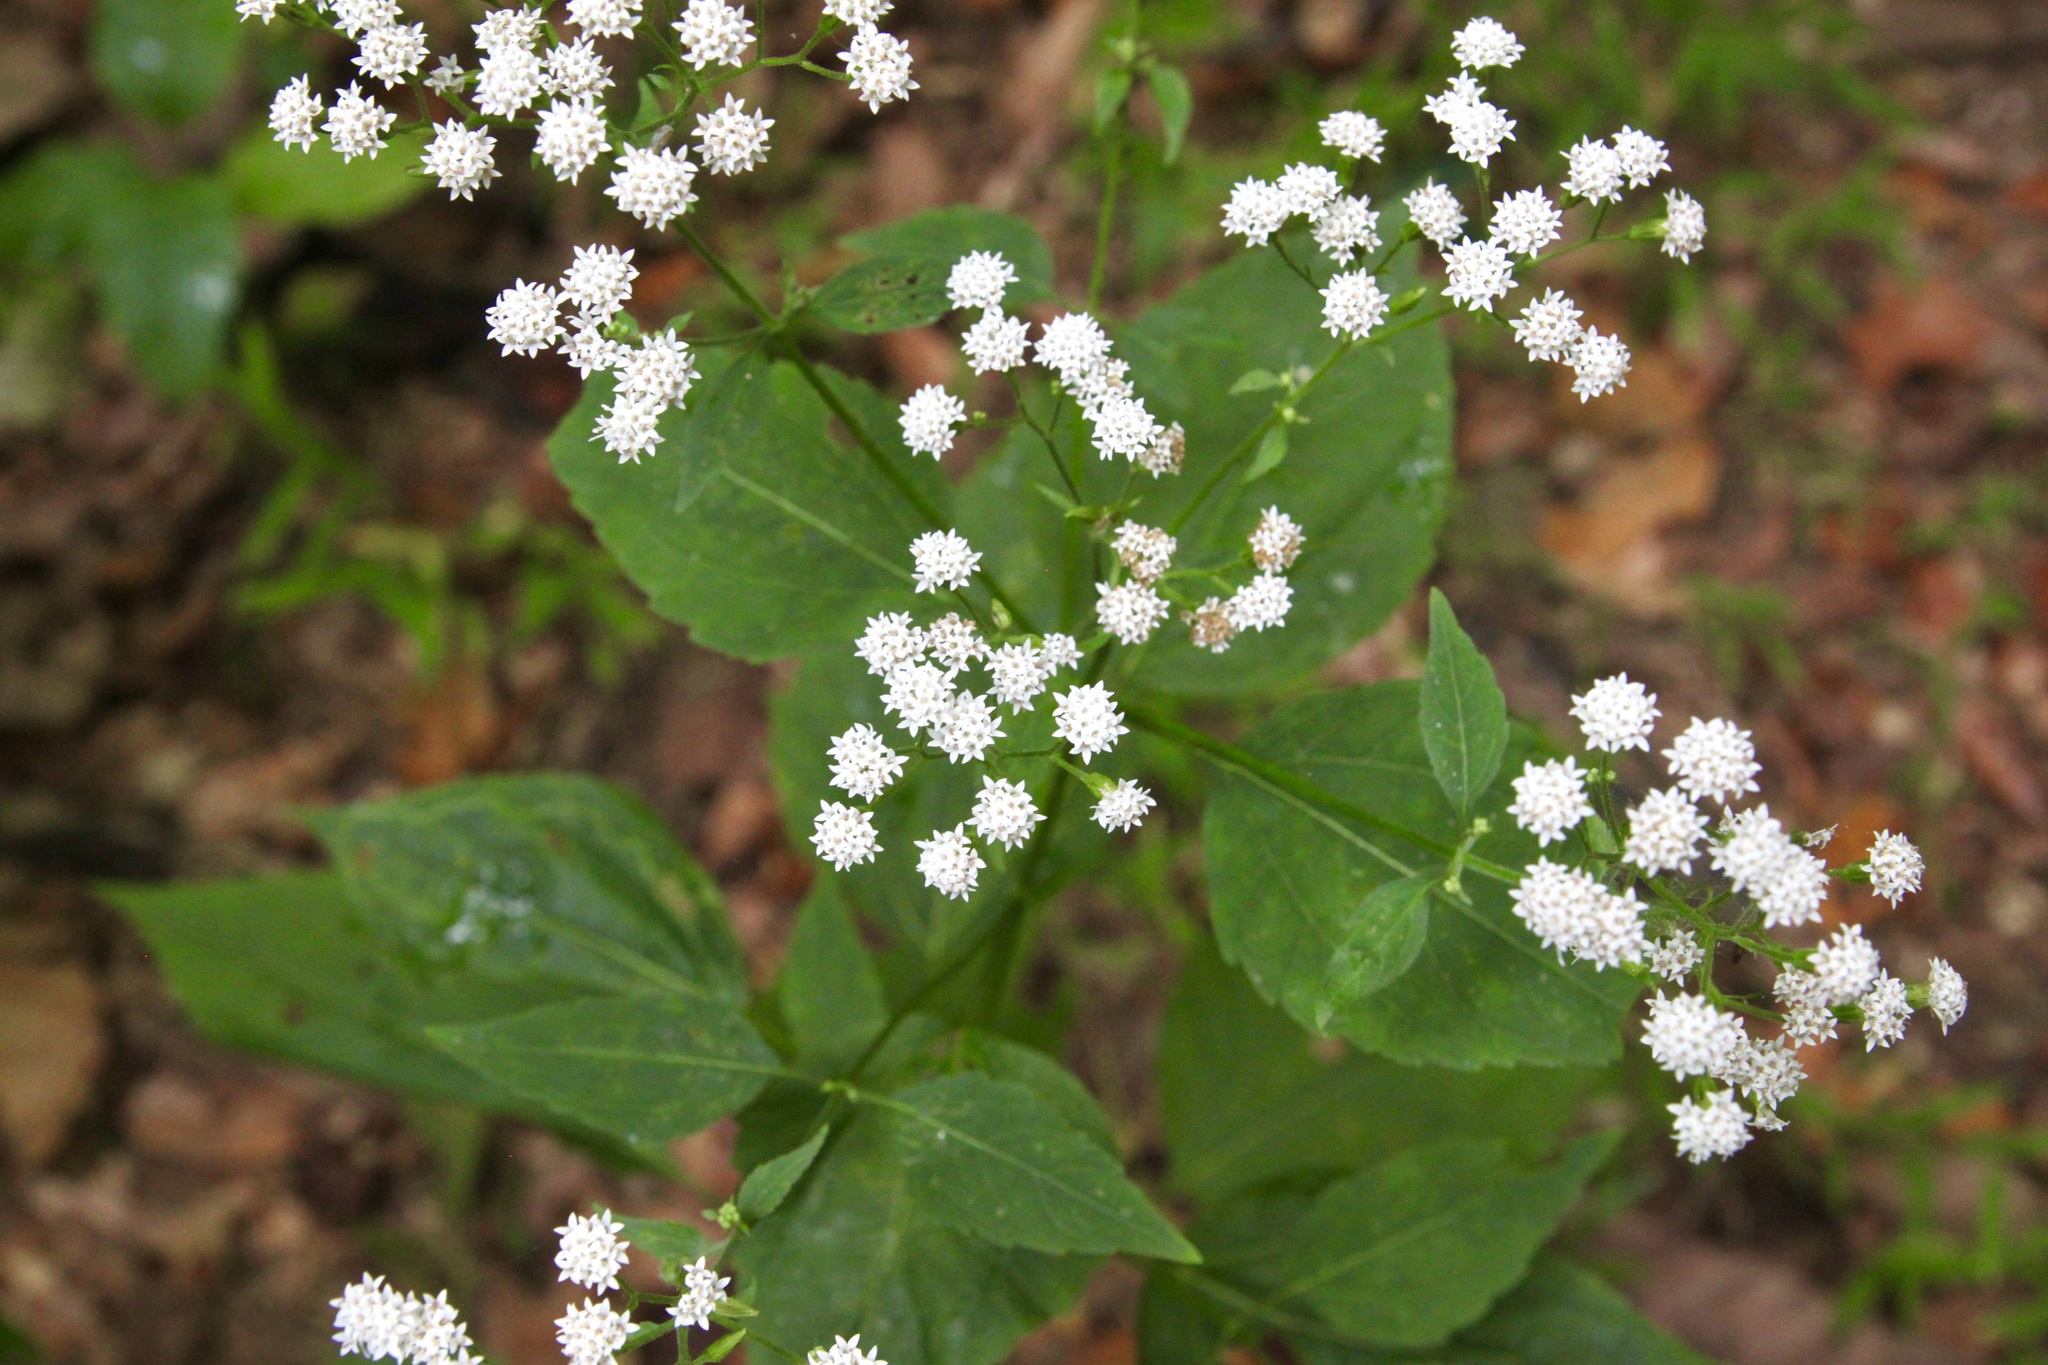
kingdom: Plantae
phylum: Tracheophyta
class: Magnoliopsida
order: Asterales
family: Asteraceae
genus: Ageratina
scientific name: Ageratina altissima
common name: White snakeroot
